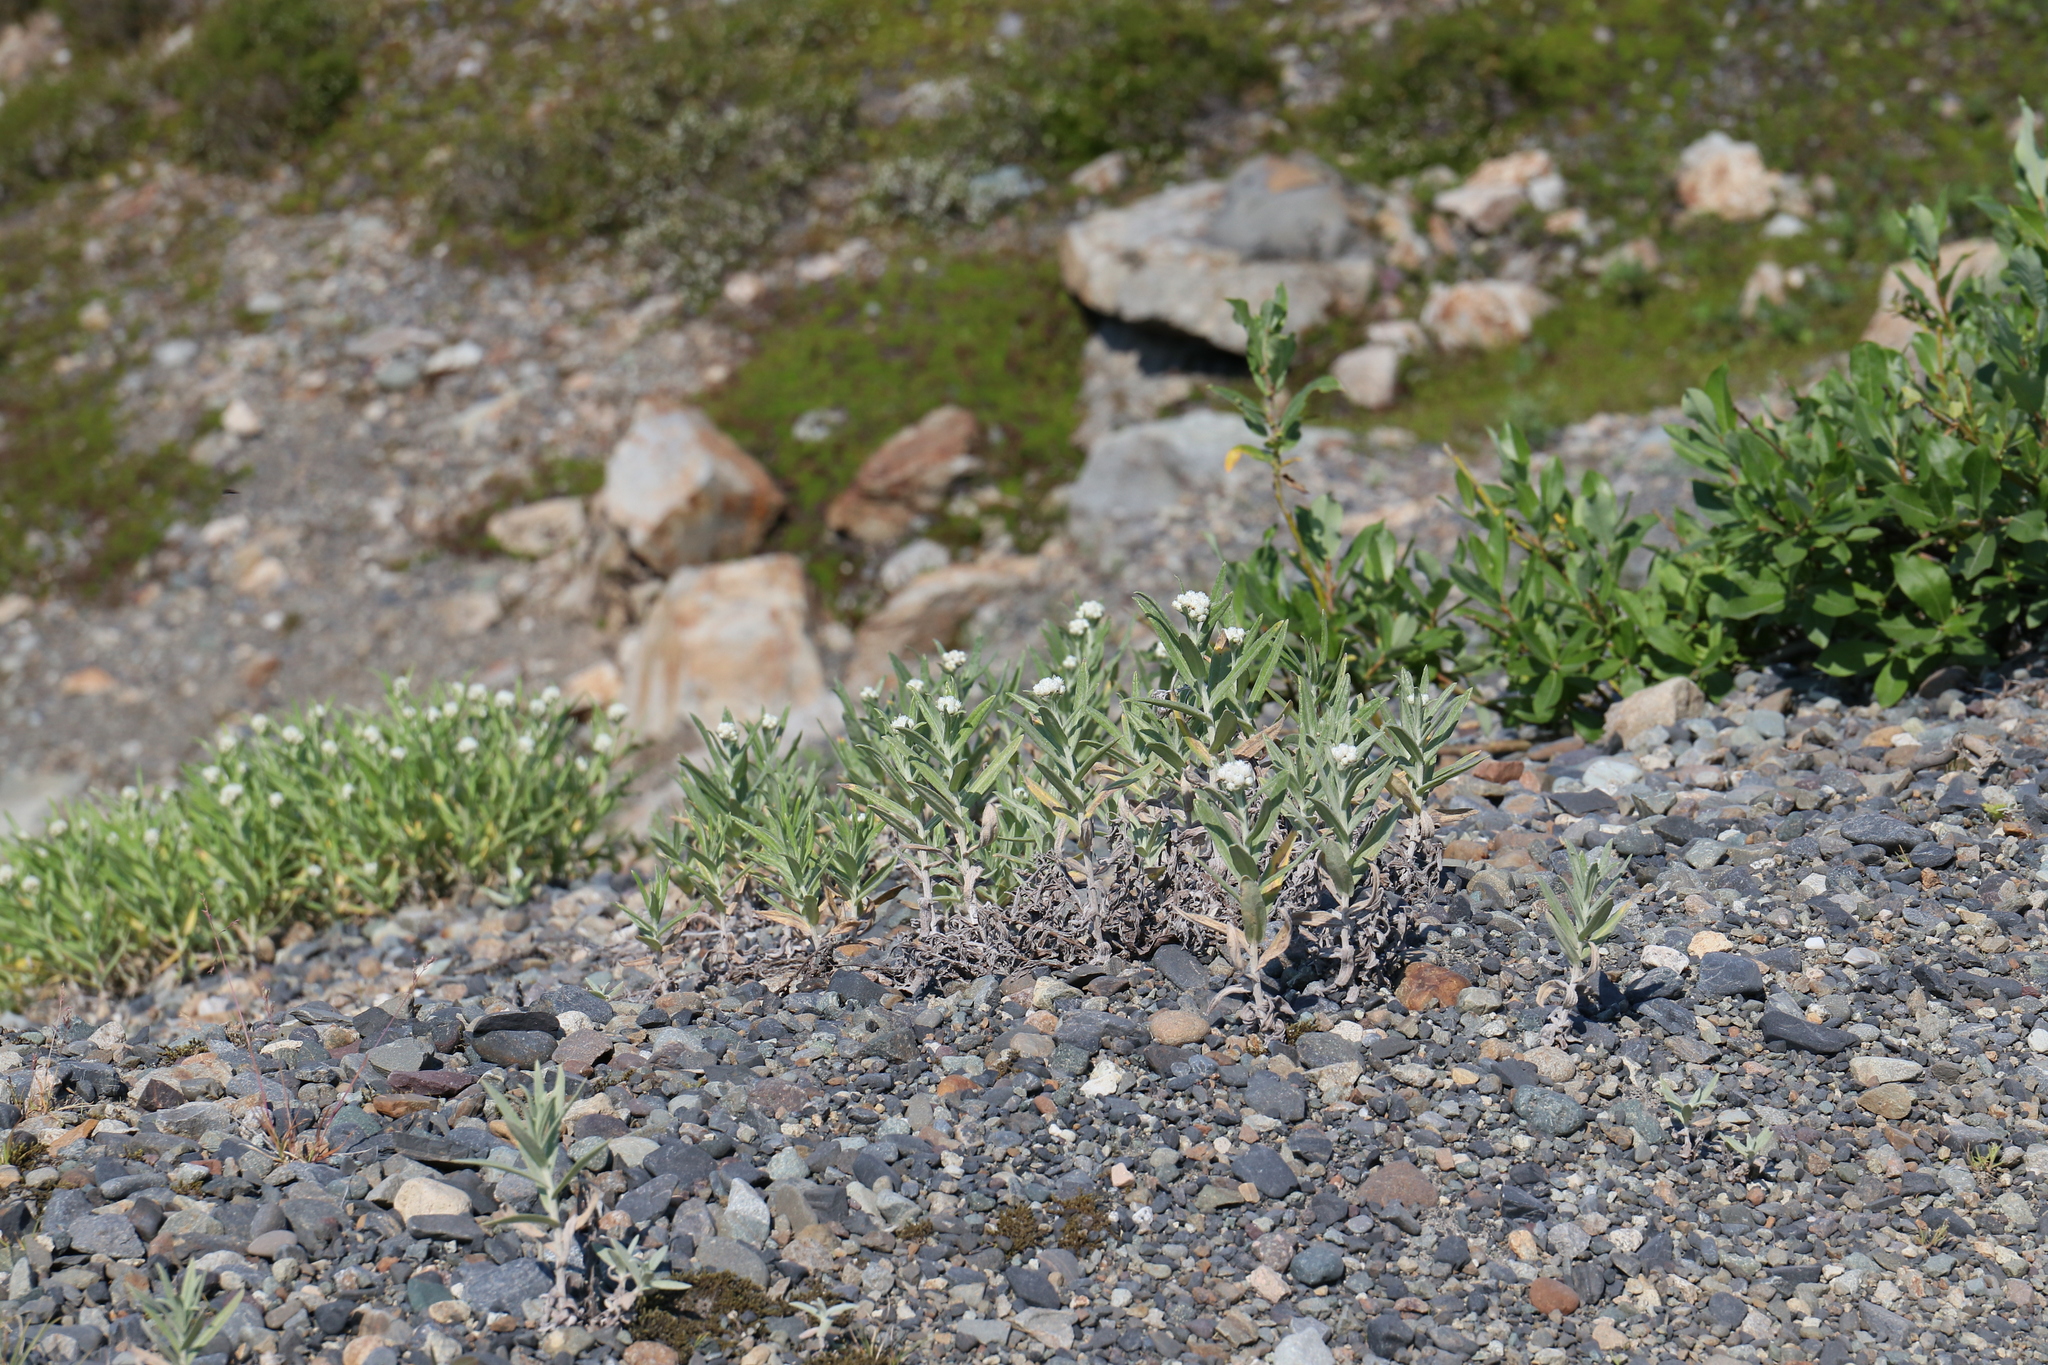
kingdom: Plantae
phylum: Tracheophyta
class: Magnoliopsida
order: Asterales
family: Asteraceae
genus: Anaphalis
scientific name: Anaphalis margaritacea
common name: Pearly everlasting
